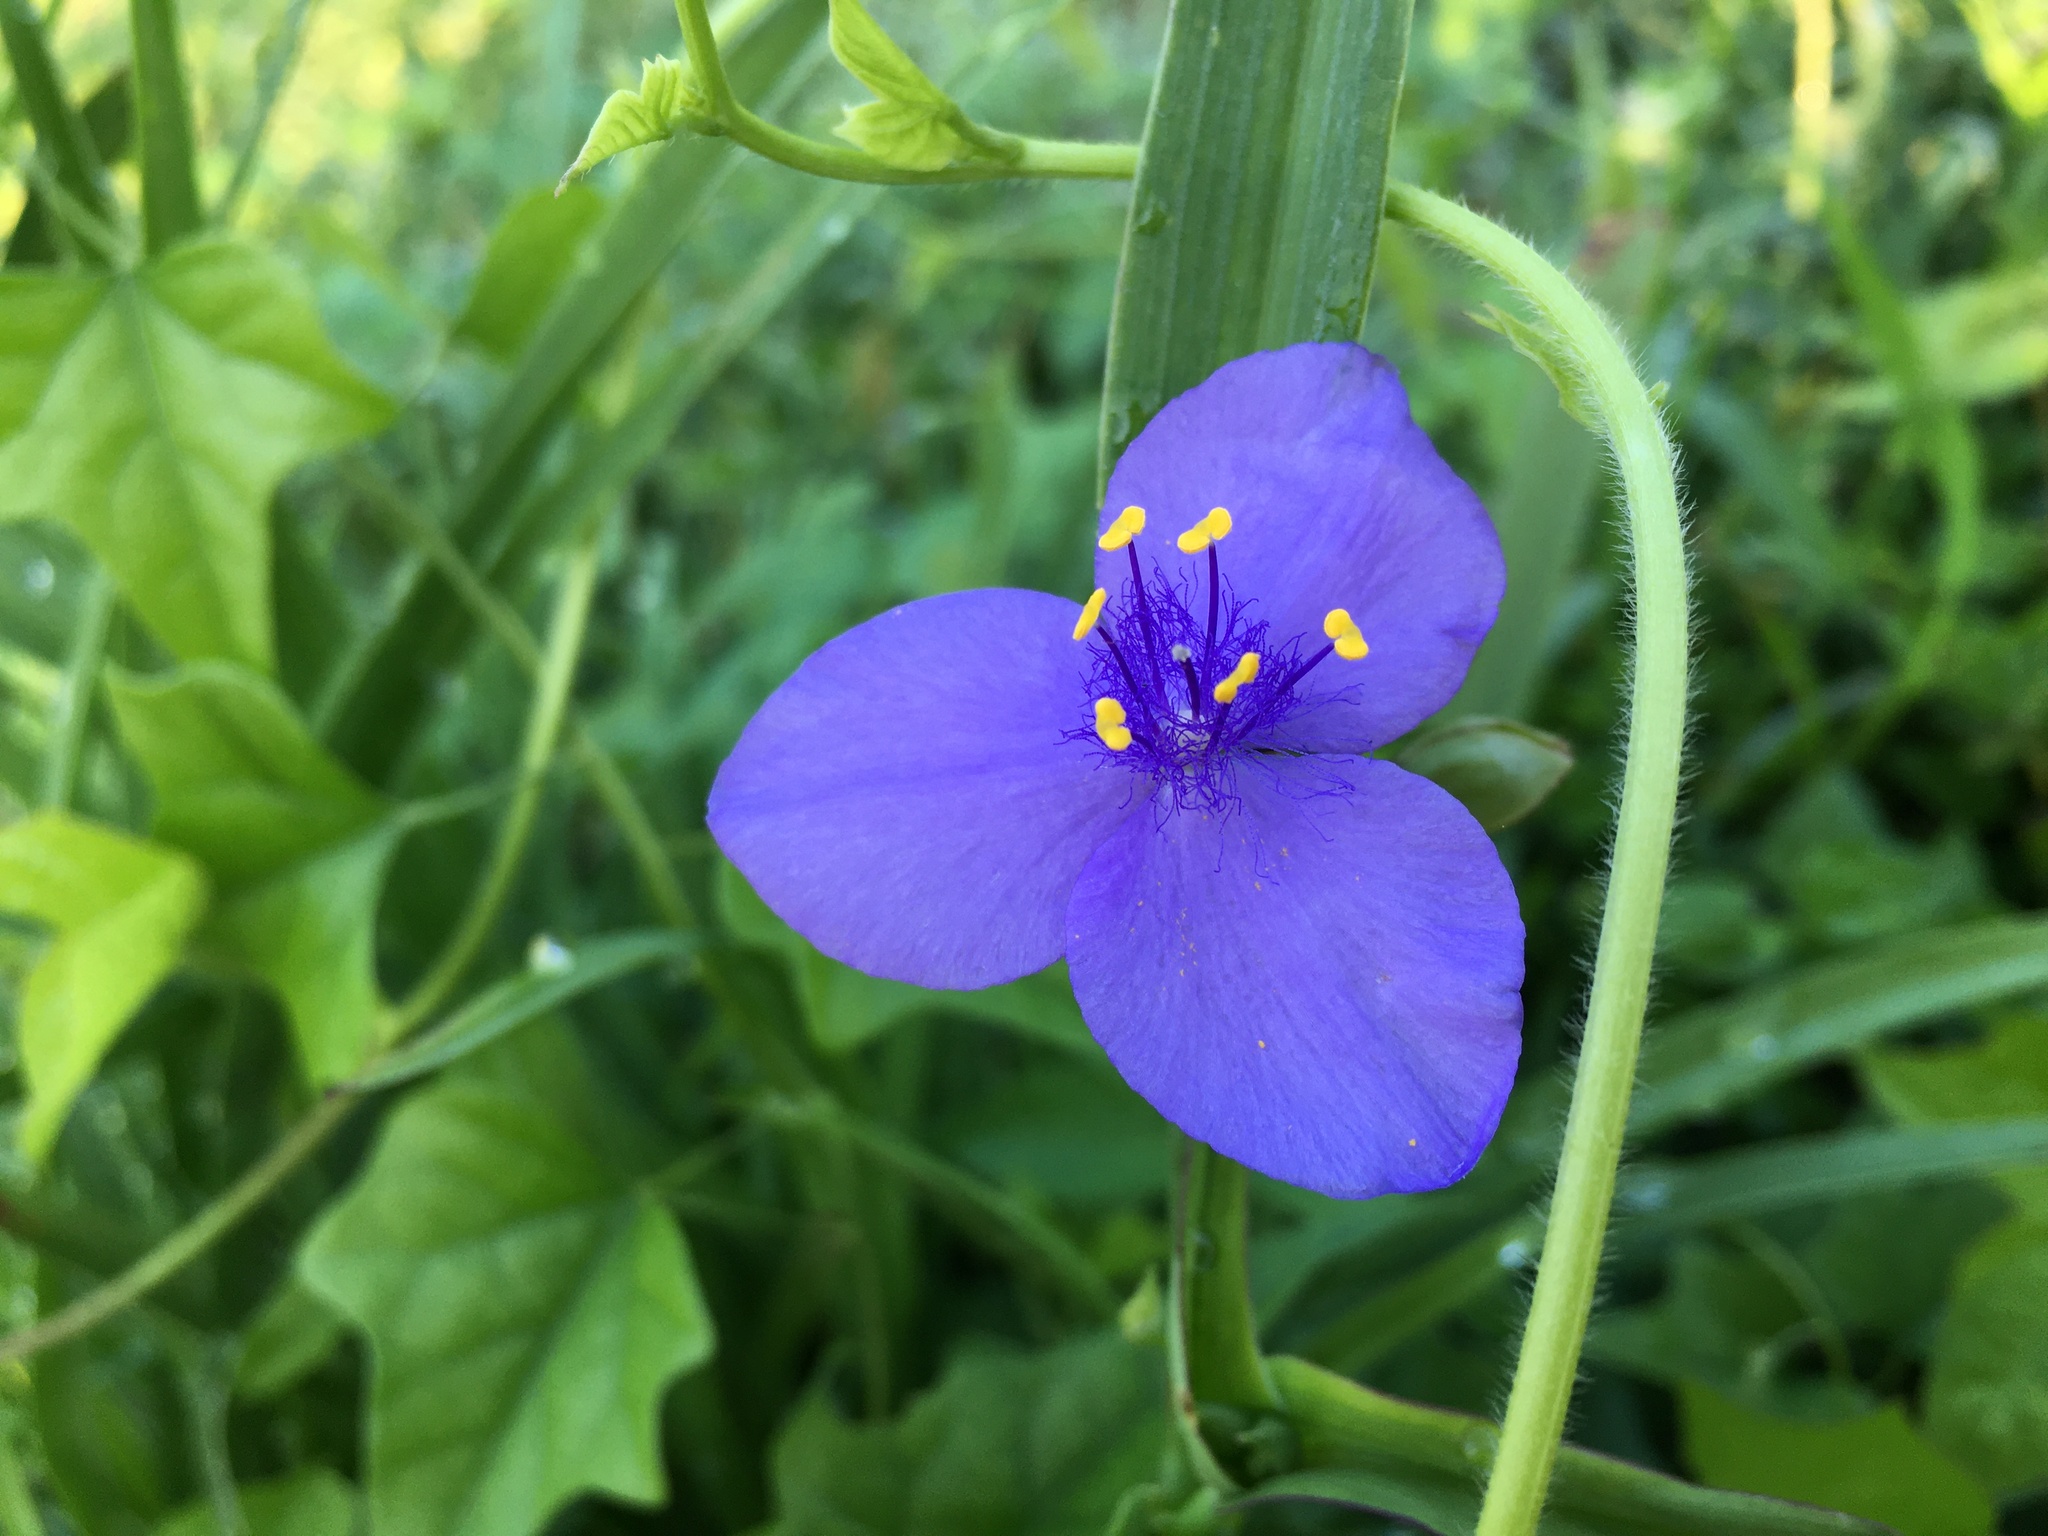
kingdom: Plantae
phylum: Tracheophyta
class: Liliopsida
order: Commelinales
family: Commelinaceae
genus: Tradescantia
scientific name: Tradescantia ohiensis
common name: Ohio spiderwort
